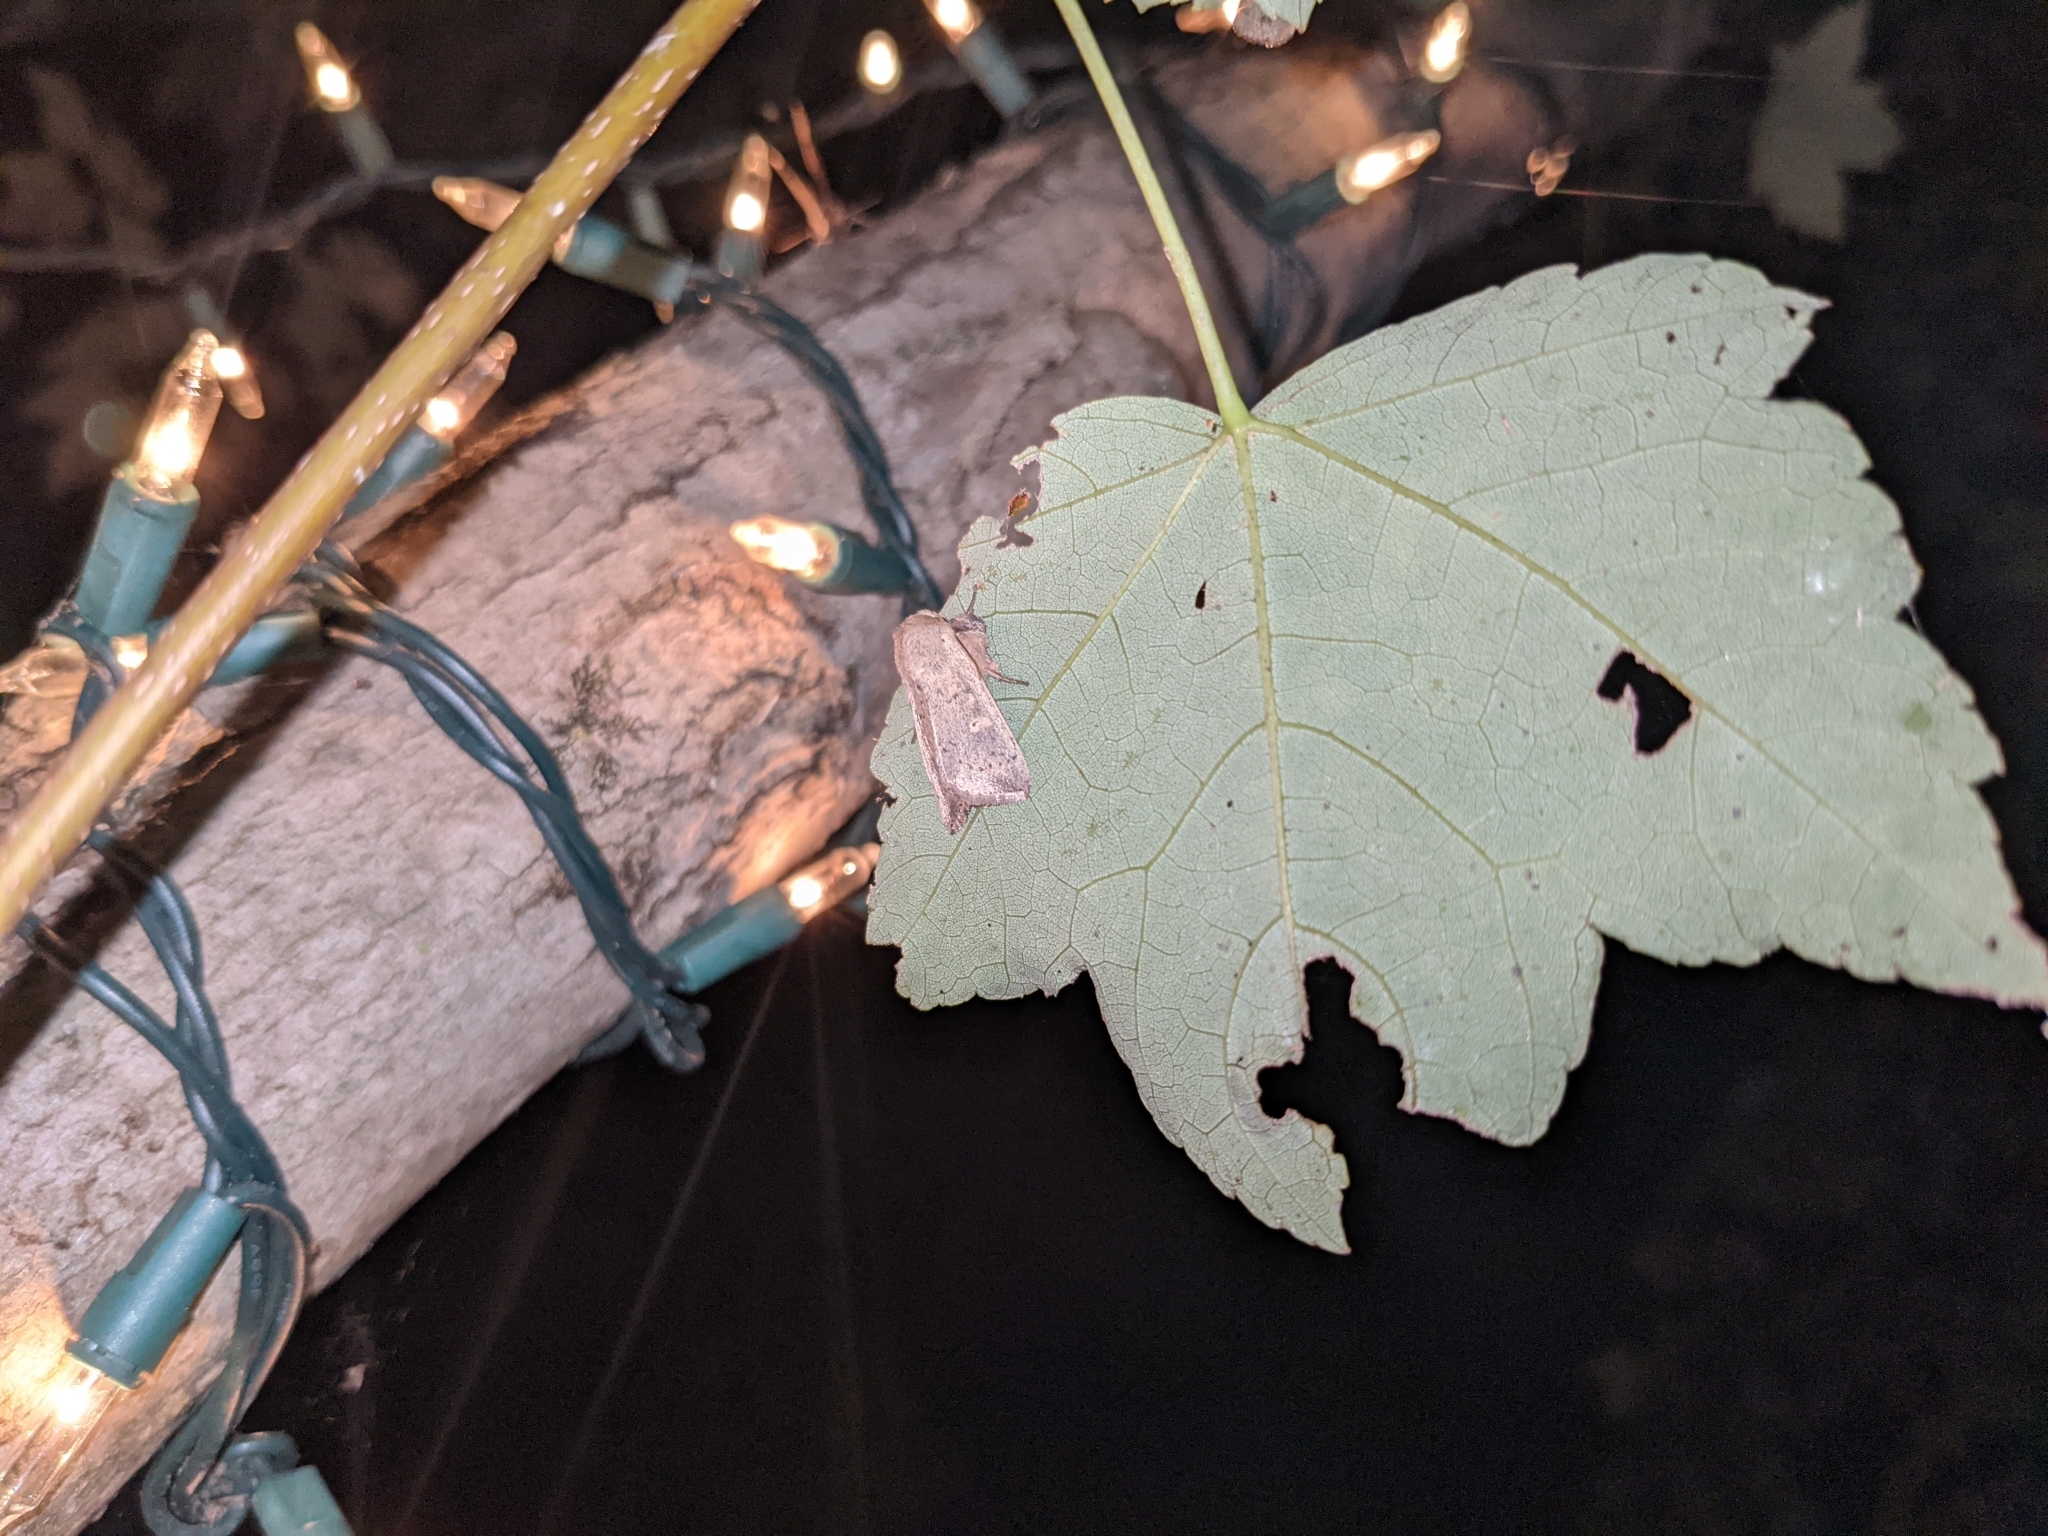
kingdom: Animalia
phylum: Arthropoda
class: Insecta
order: Lepidoptera
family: Noctuidae
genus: Leucania
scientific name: Leucania ursula
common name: Ursula wainscot
